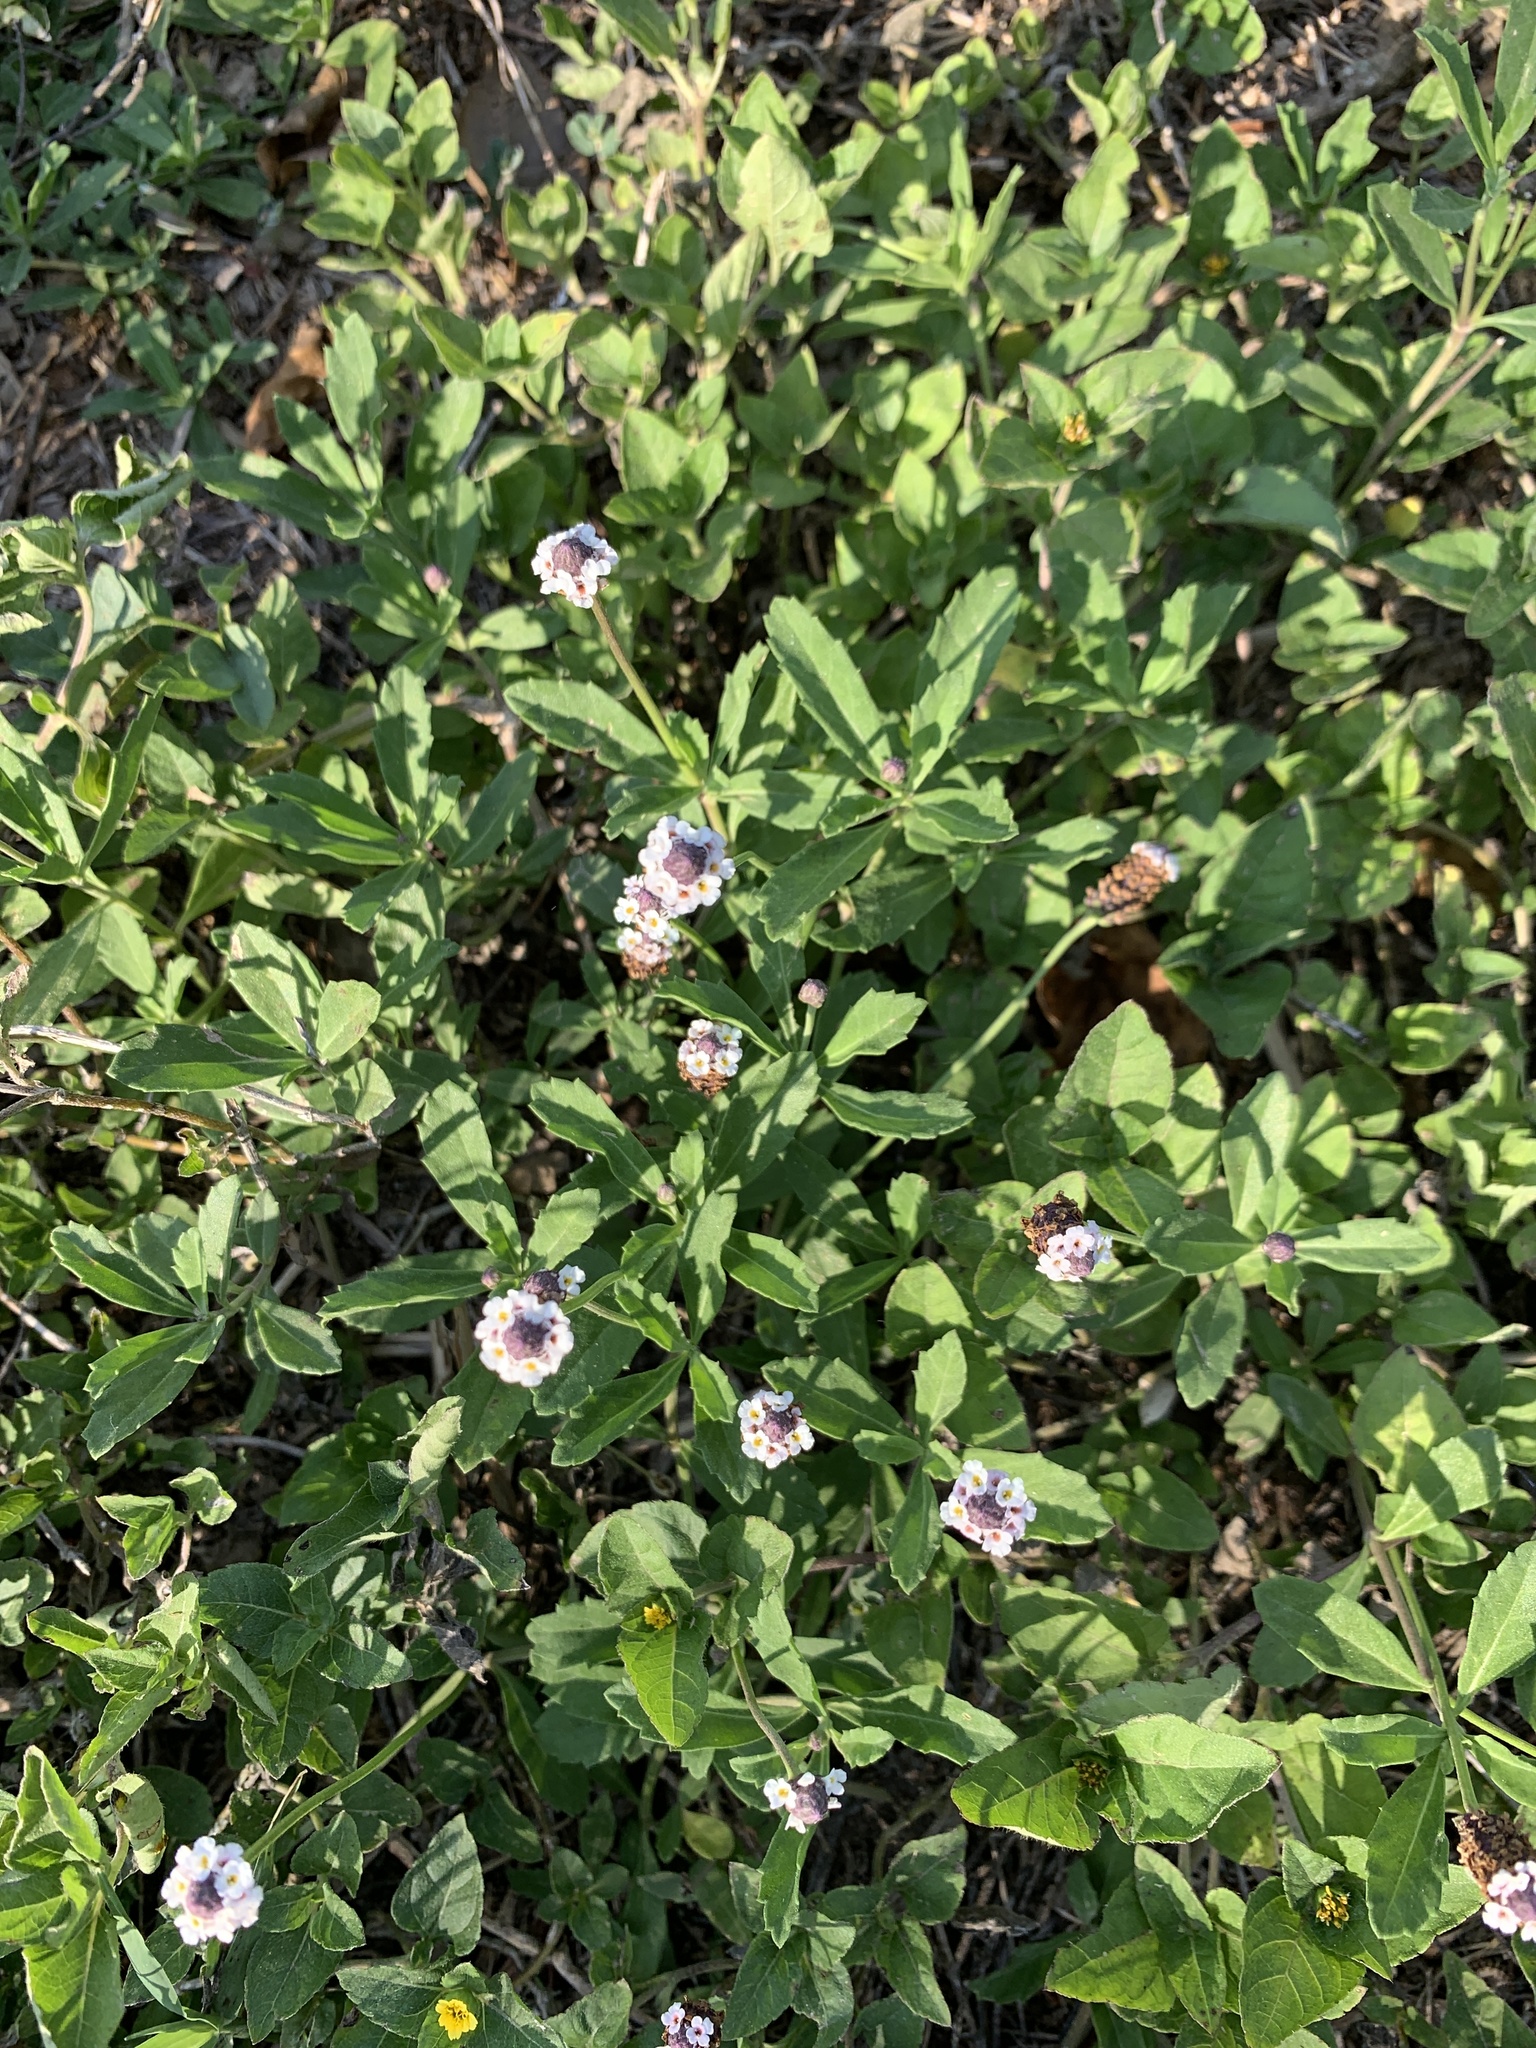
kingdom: Plantae
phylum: Tracheophyta
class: Magnoliopsida
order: Lamiales
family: Verbenaceae
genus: Phyla
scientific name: Phyla nodiflora
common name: Frogfruit
